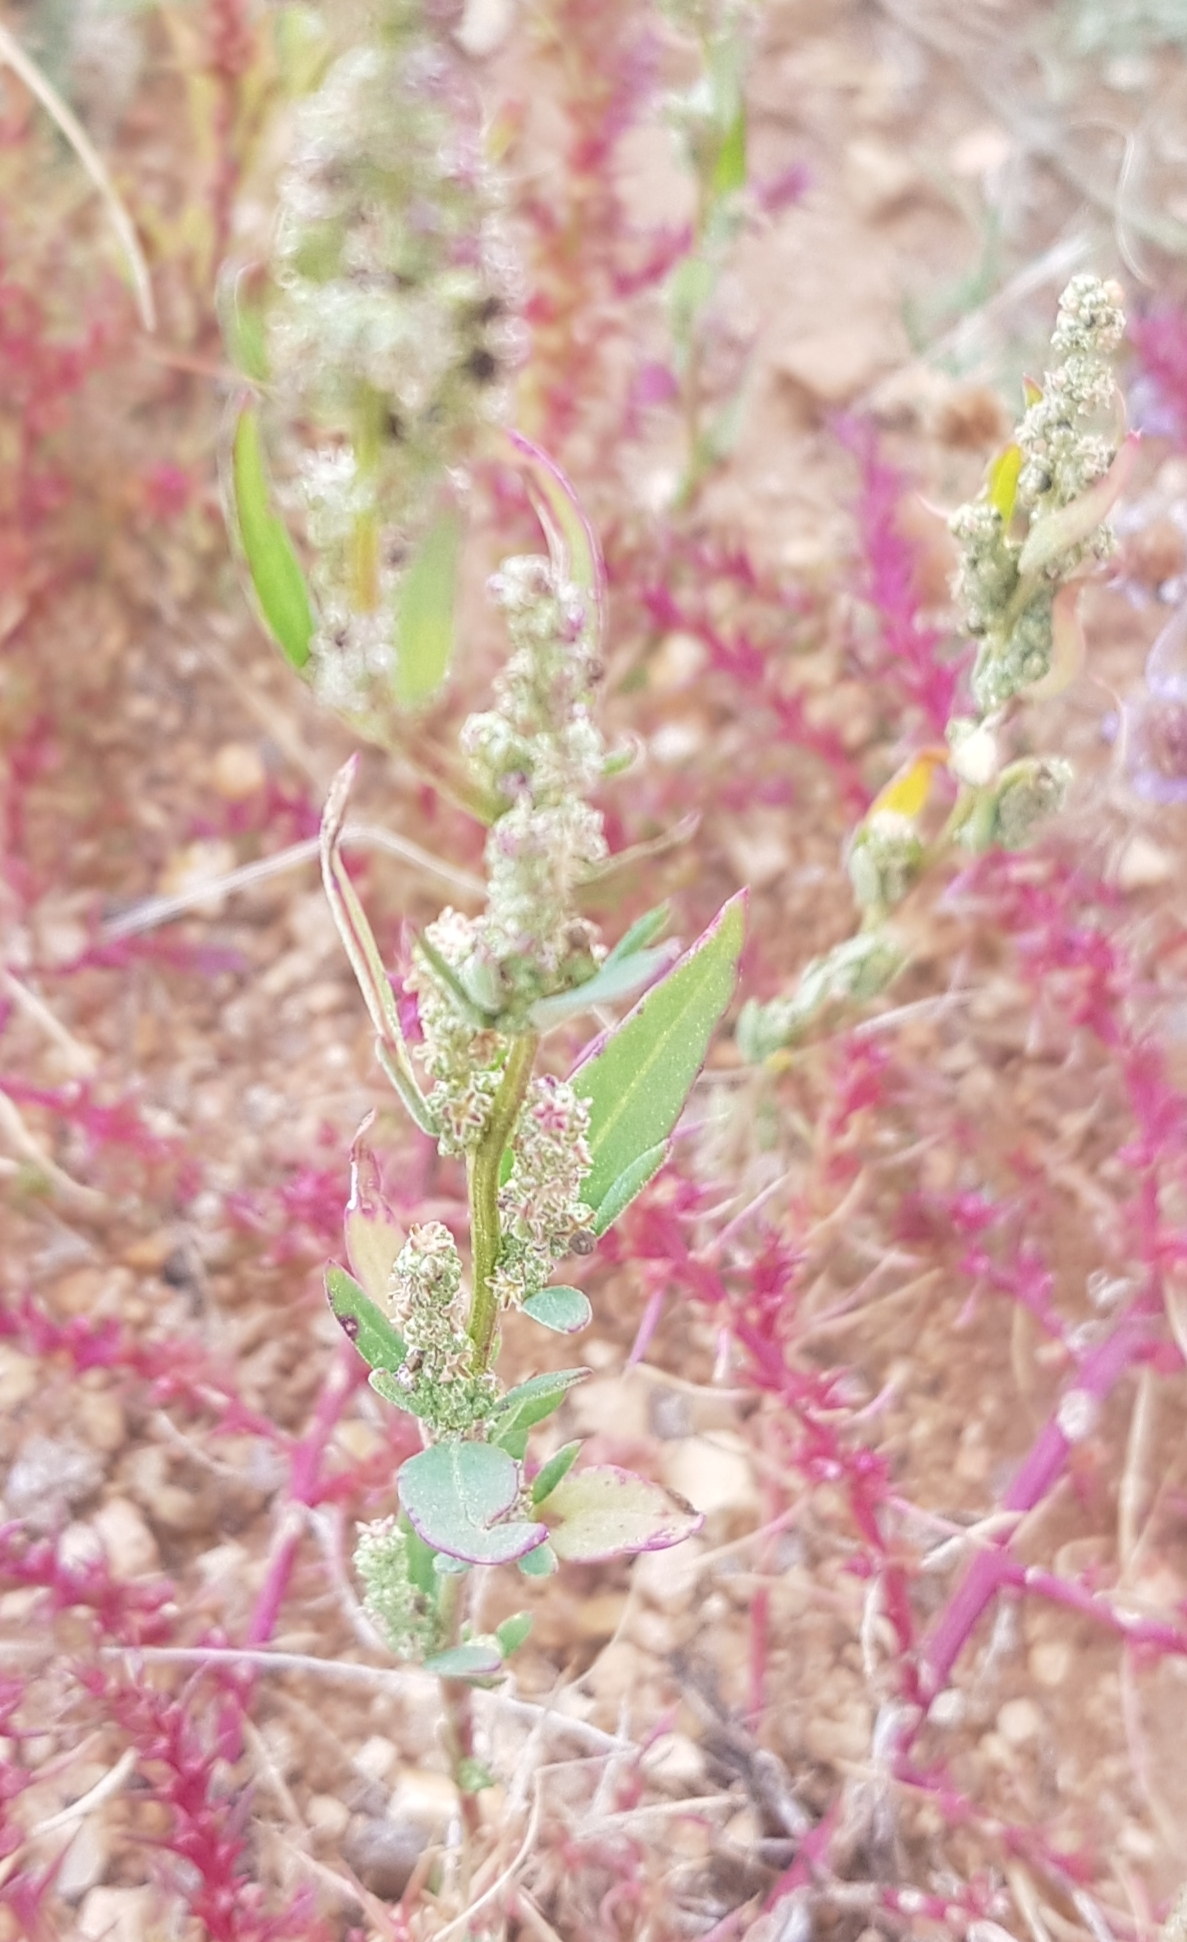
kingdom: Plantae
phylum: Tracheophyta
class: Magnoliopsida
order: Caryophyllales
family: Amaranthaceae
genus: Chenopodium
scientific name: Chenopodium album
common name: Fat-hen
